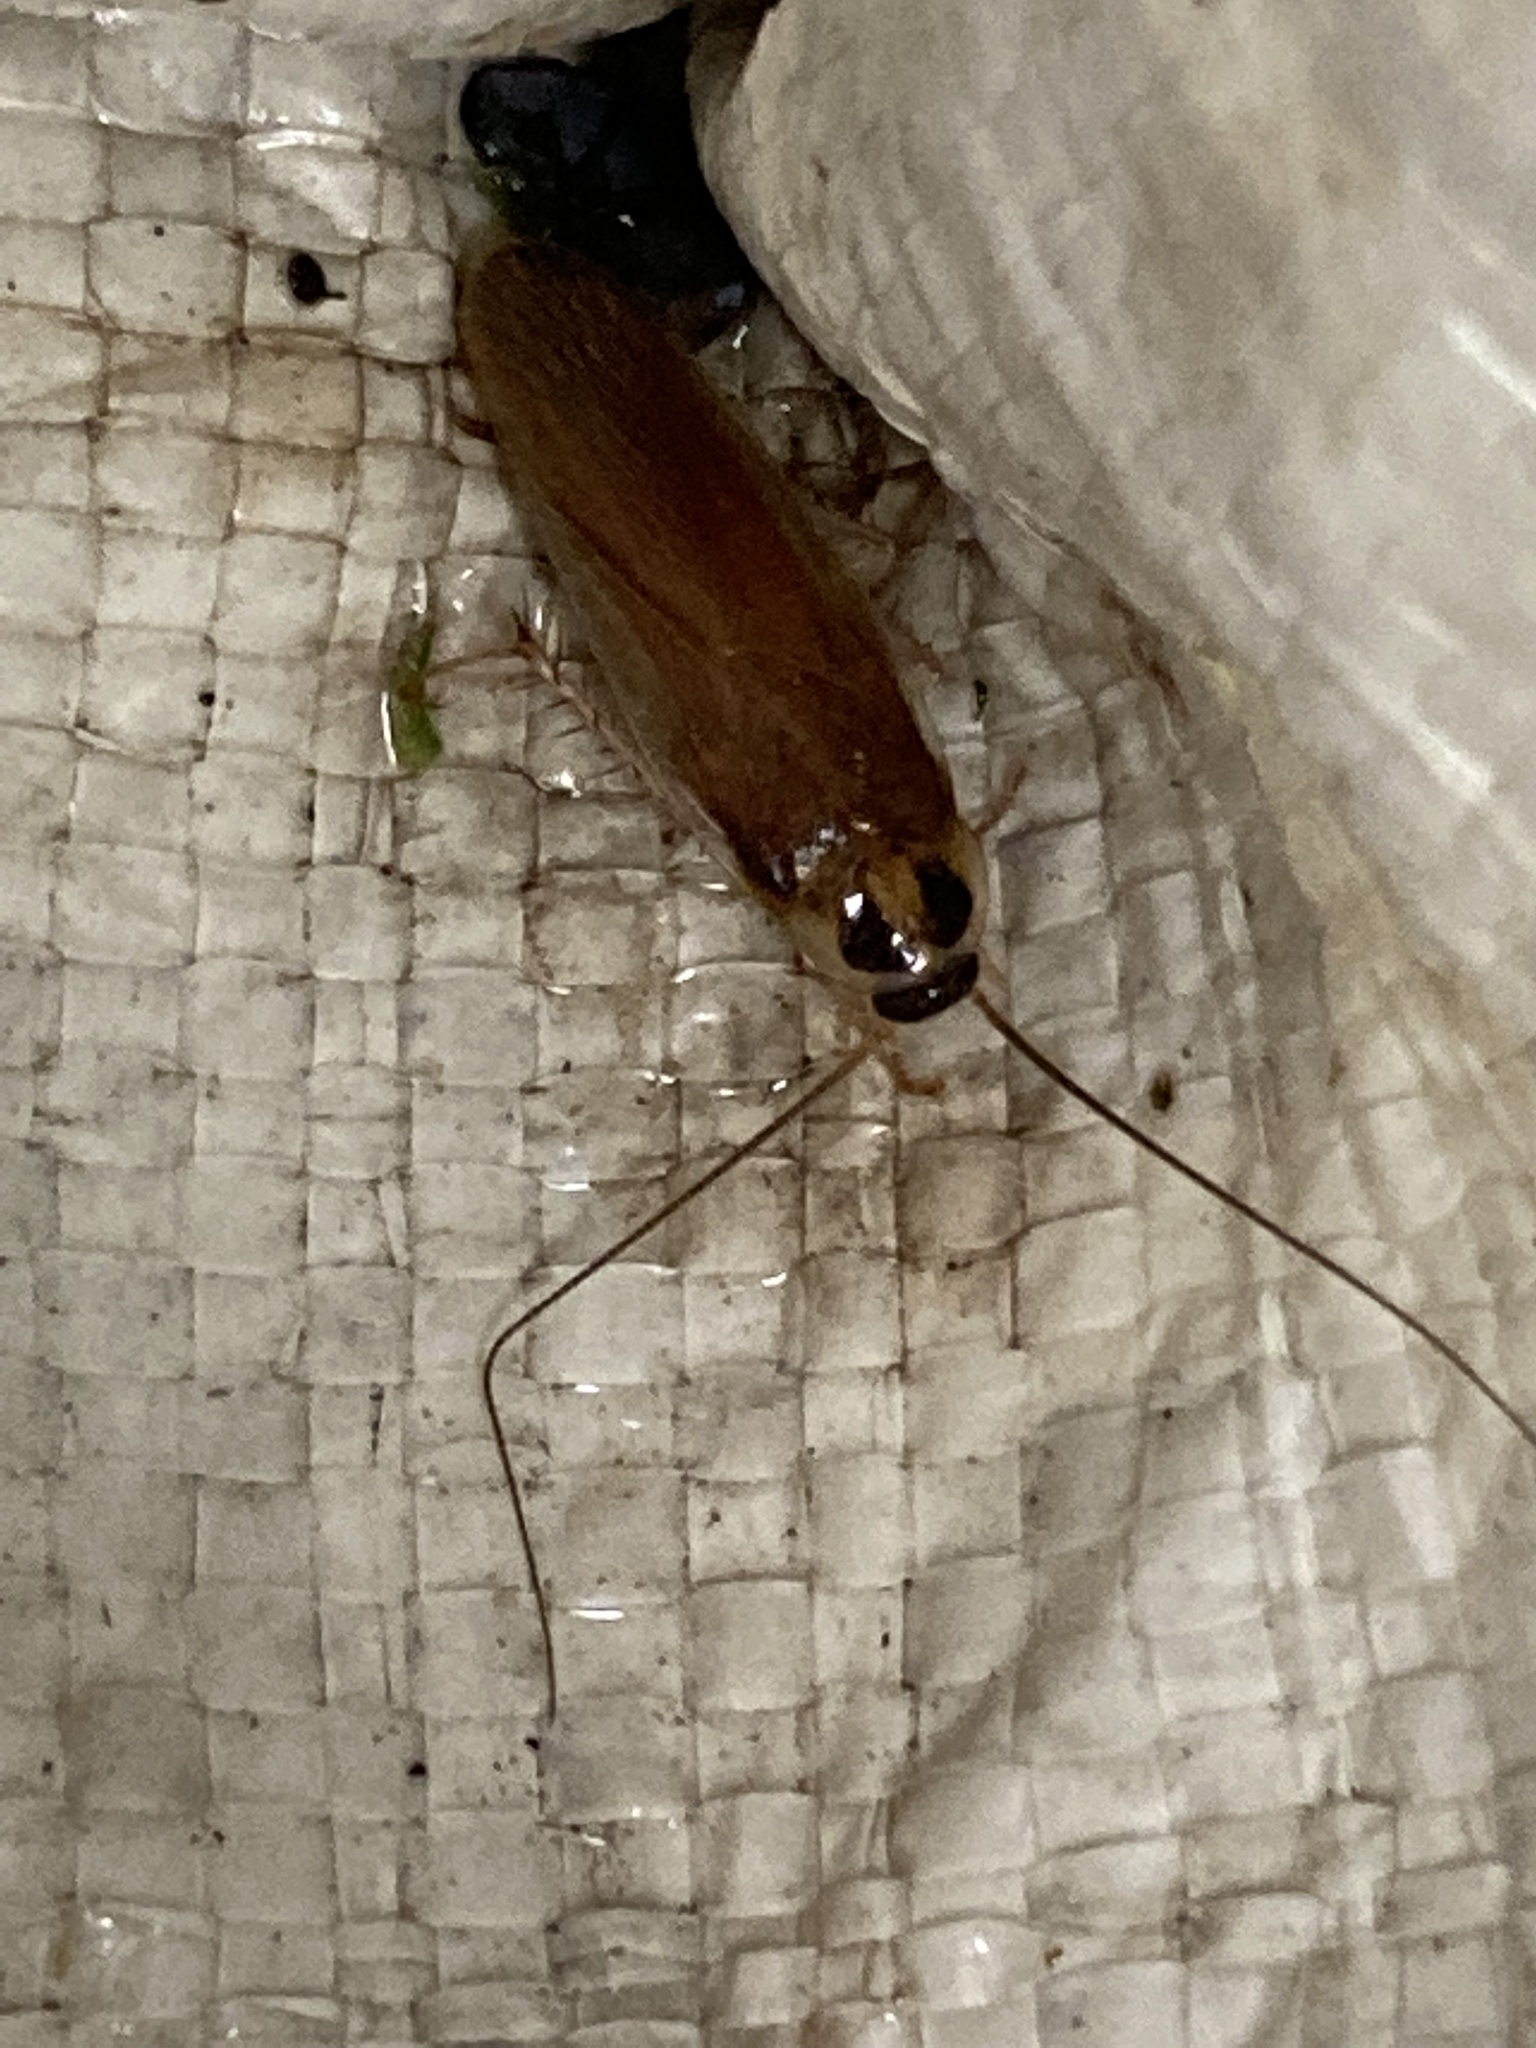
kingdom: Animalia
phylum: Arthropoda
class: Insecta
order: Blattodea
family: Ectobiidae
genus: Ischnoptera
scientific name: Ischnoptera bilunata
